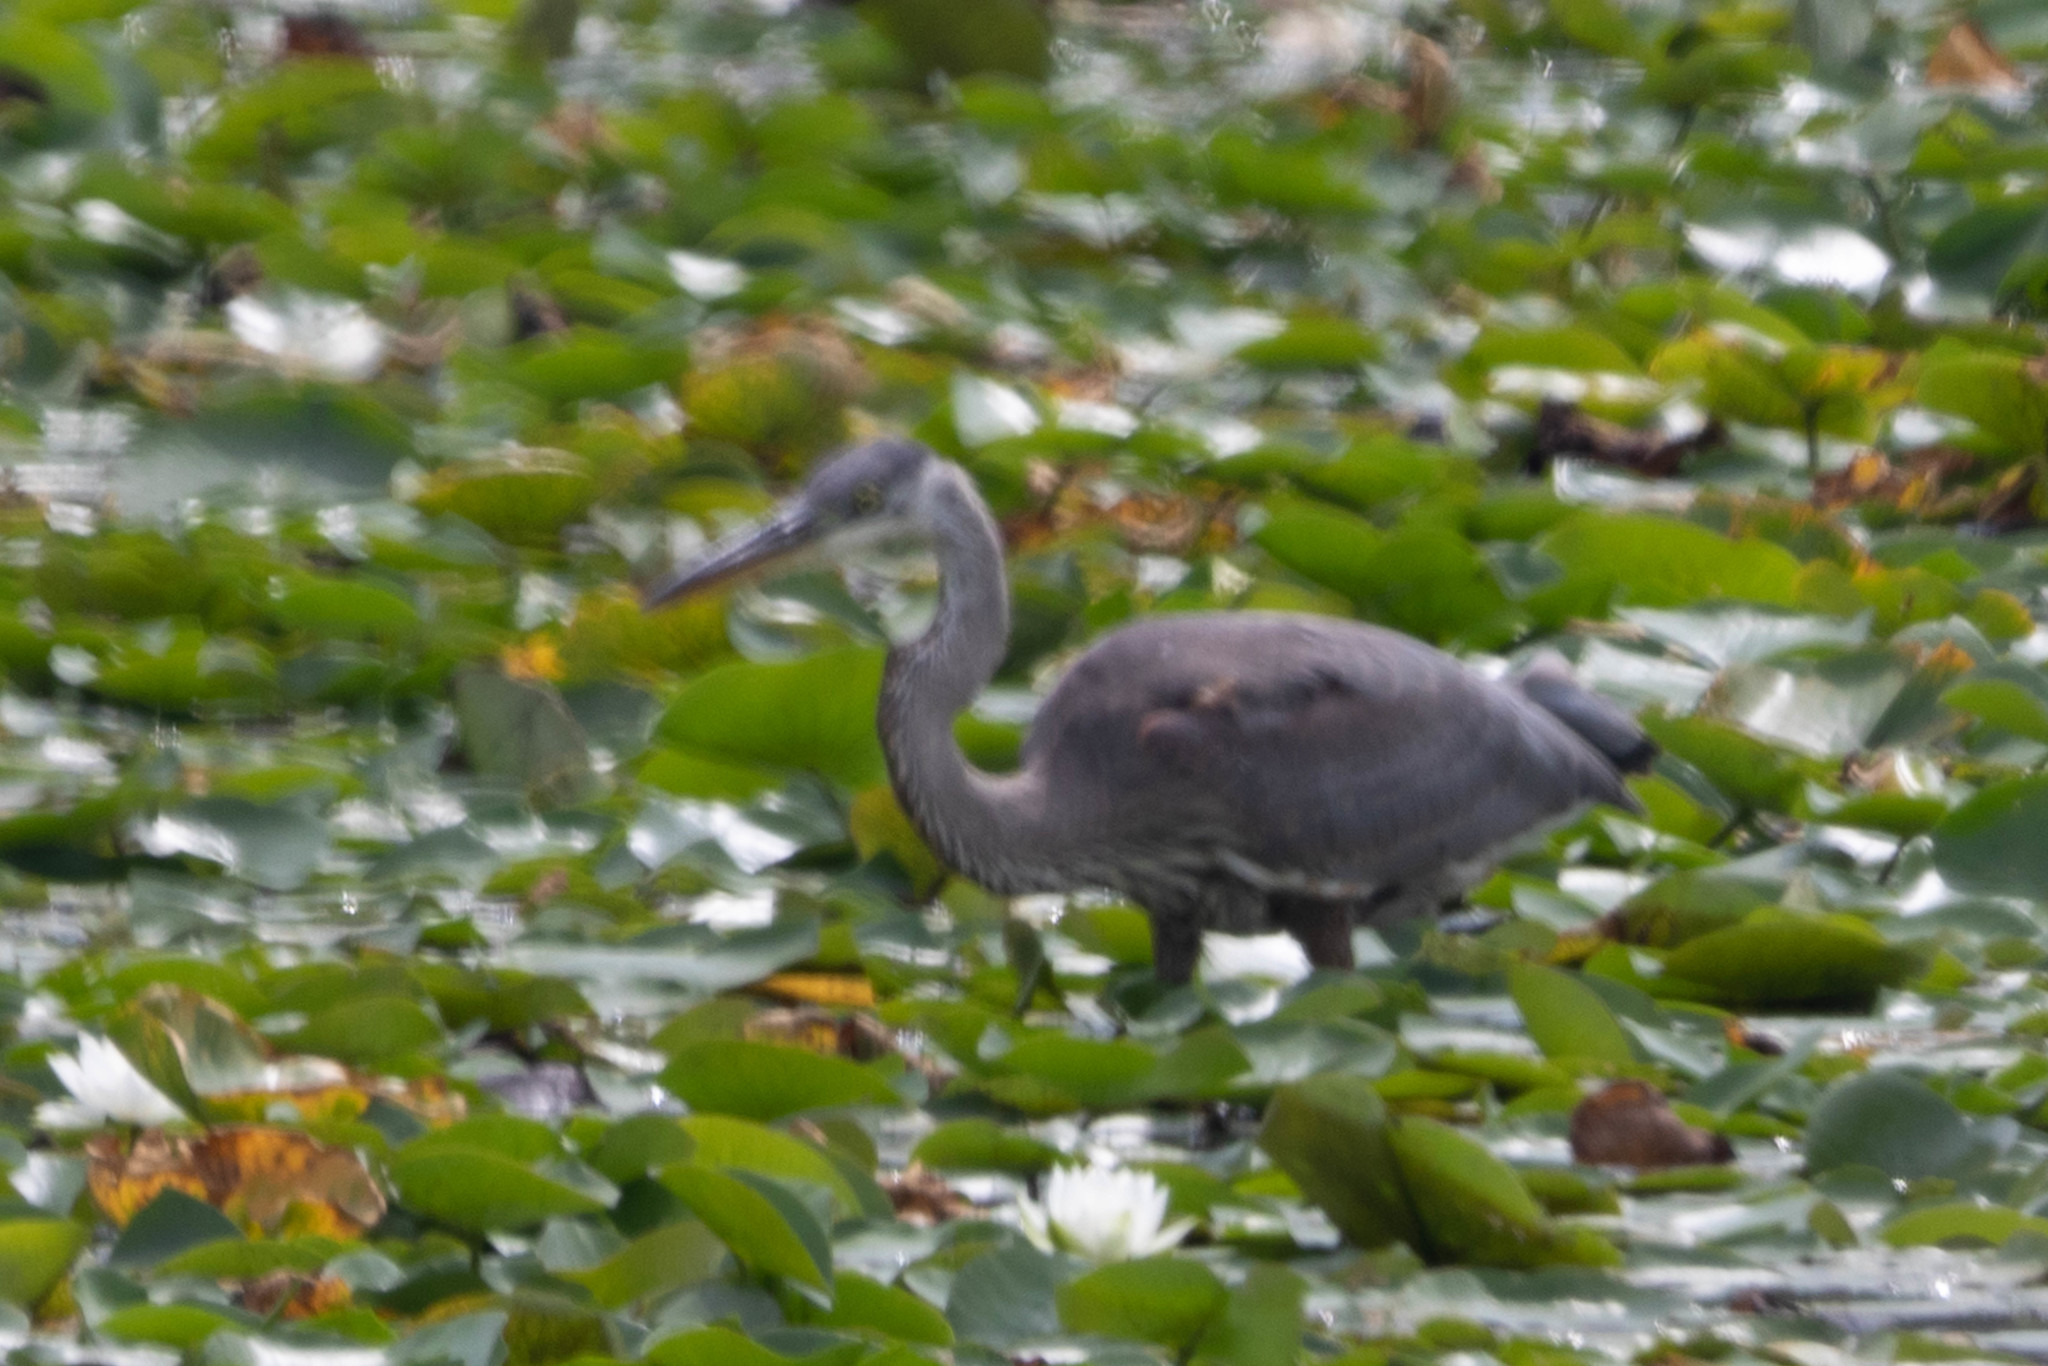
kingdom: Animalia
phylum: Chordata
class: Aves
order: Pelecaniformes
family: Ardeidae
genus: Ardea
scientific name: Ardea herodias
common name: Great blue heron
